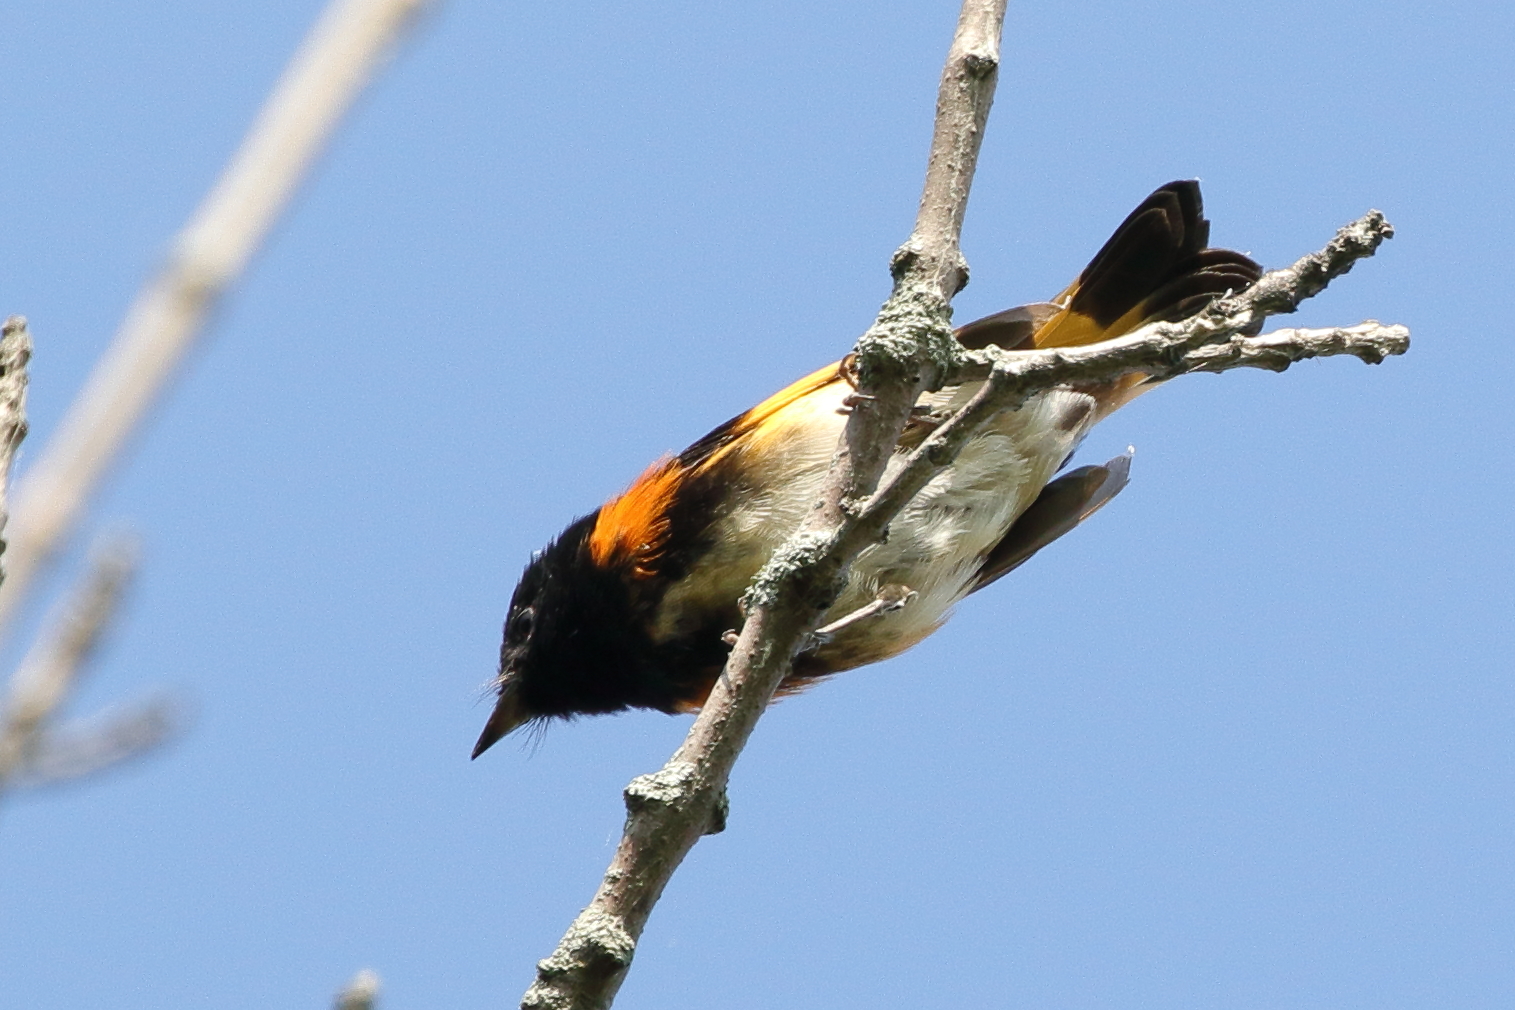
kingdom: Animalia
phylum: Chordata
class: Aves
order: Passeriformes
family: Parulidae
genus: Setophaga
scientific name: Setophaga ruticilla
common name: American redstart
